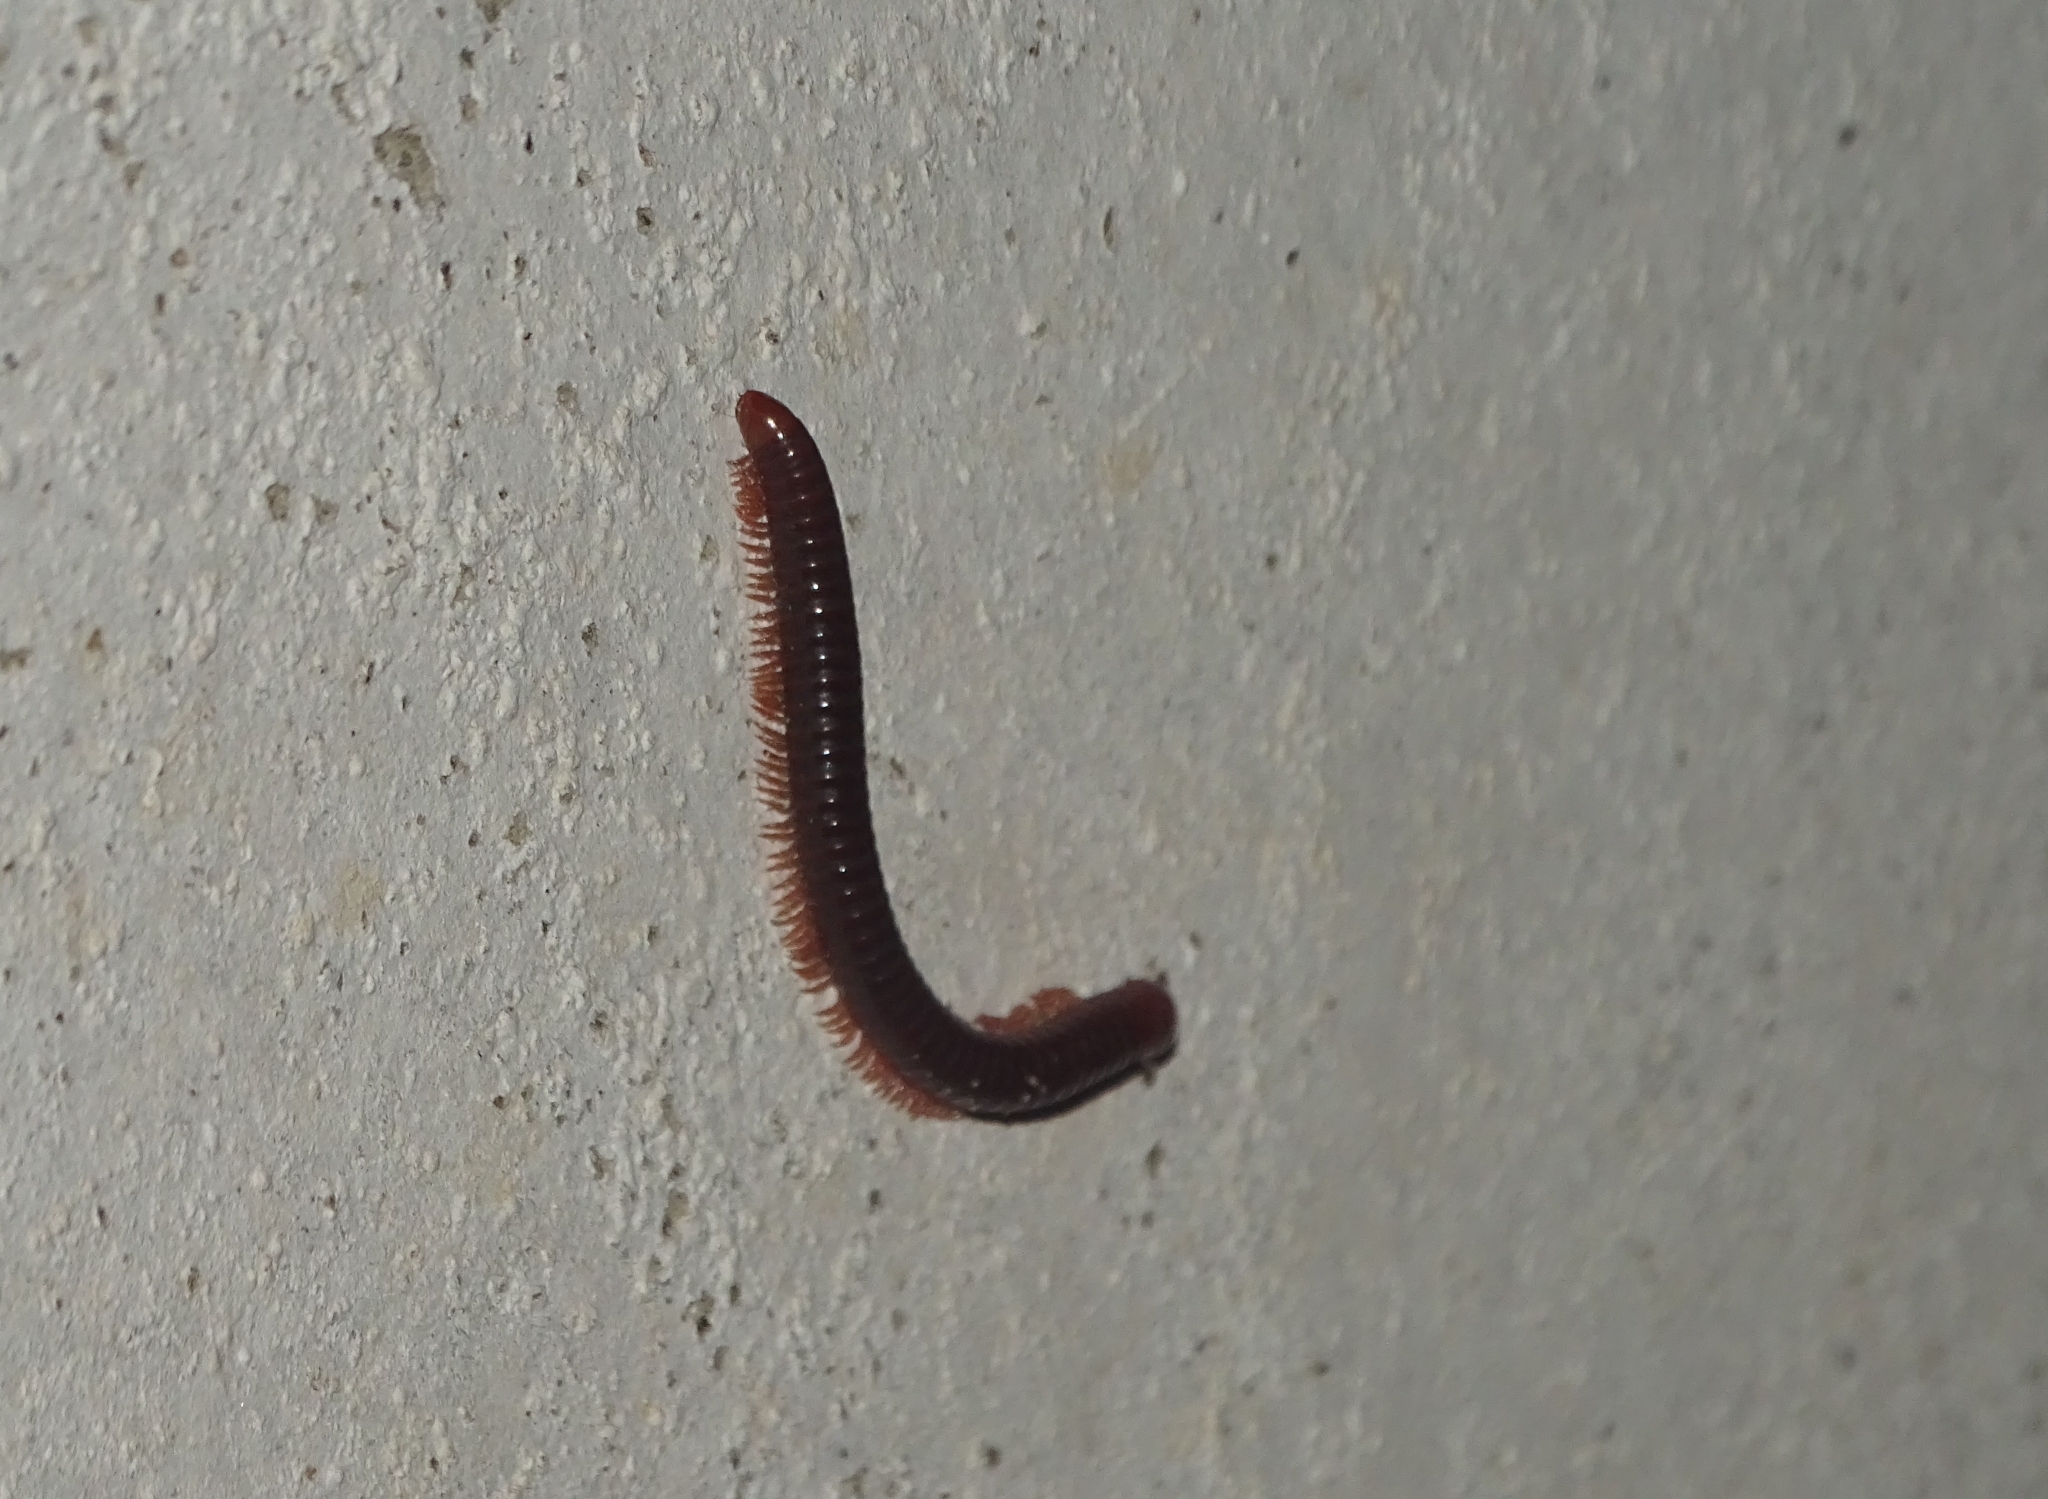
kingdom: Animalia
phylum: Arthropoda
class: Diplopoda
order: Spirobolida
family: Pachybolidae
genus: Trigoniulus
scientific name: Trigoniulus corallinus
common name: Millipede
